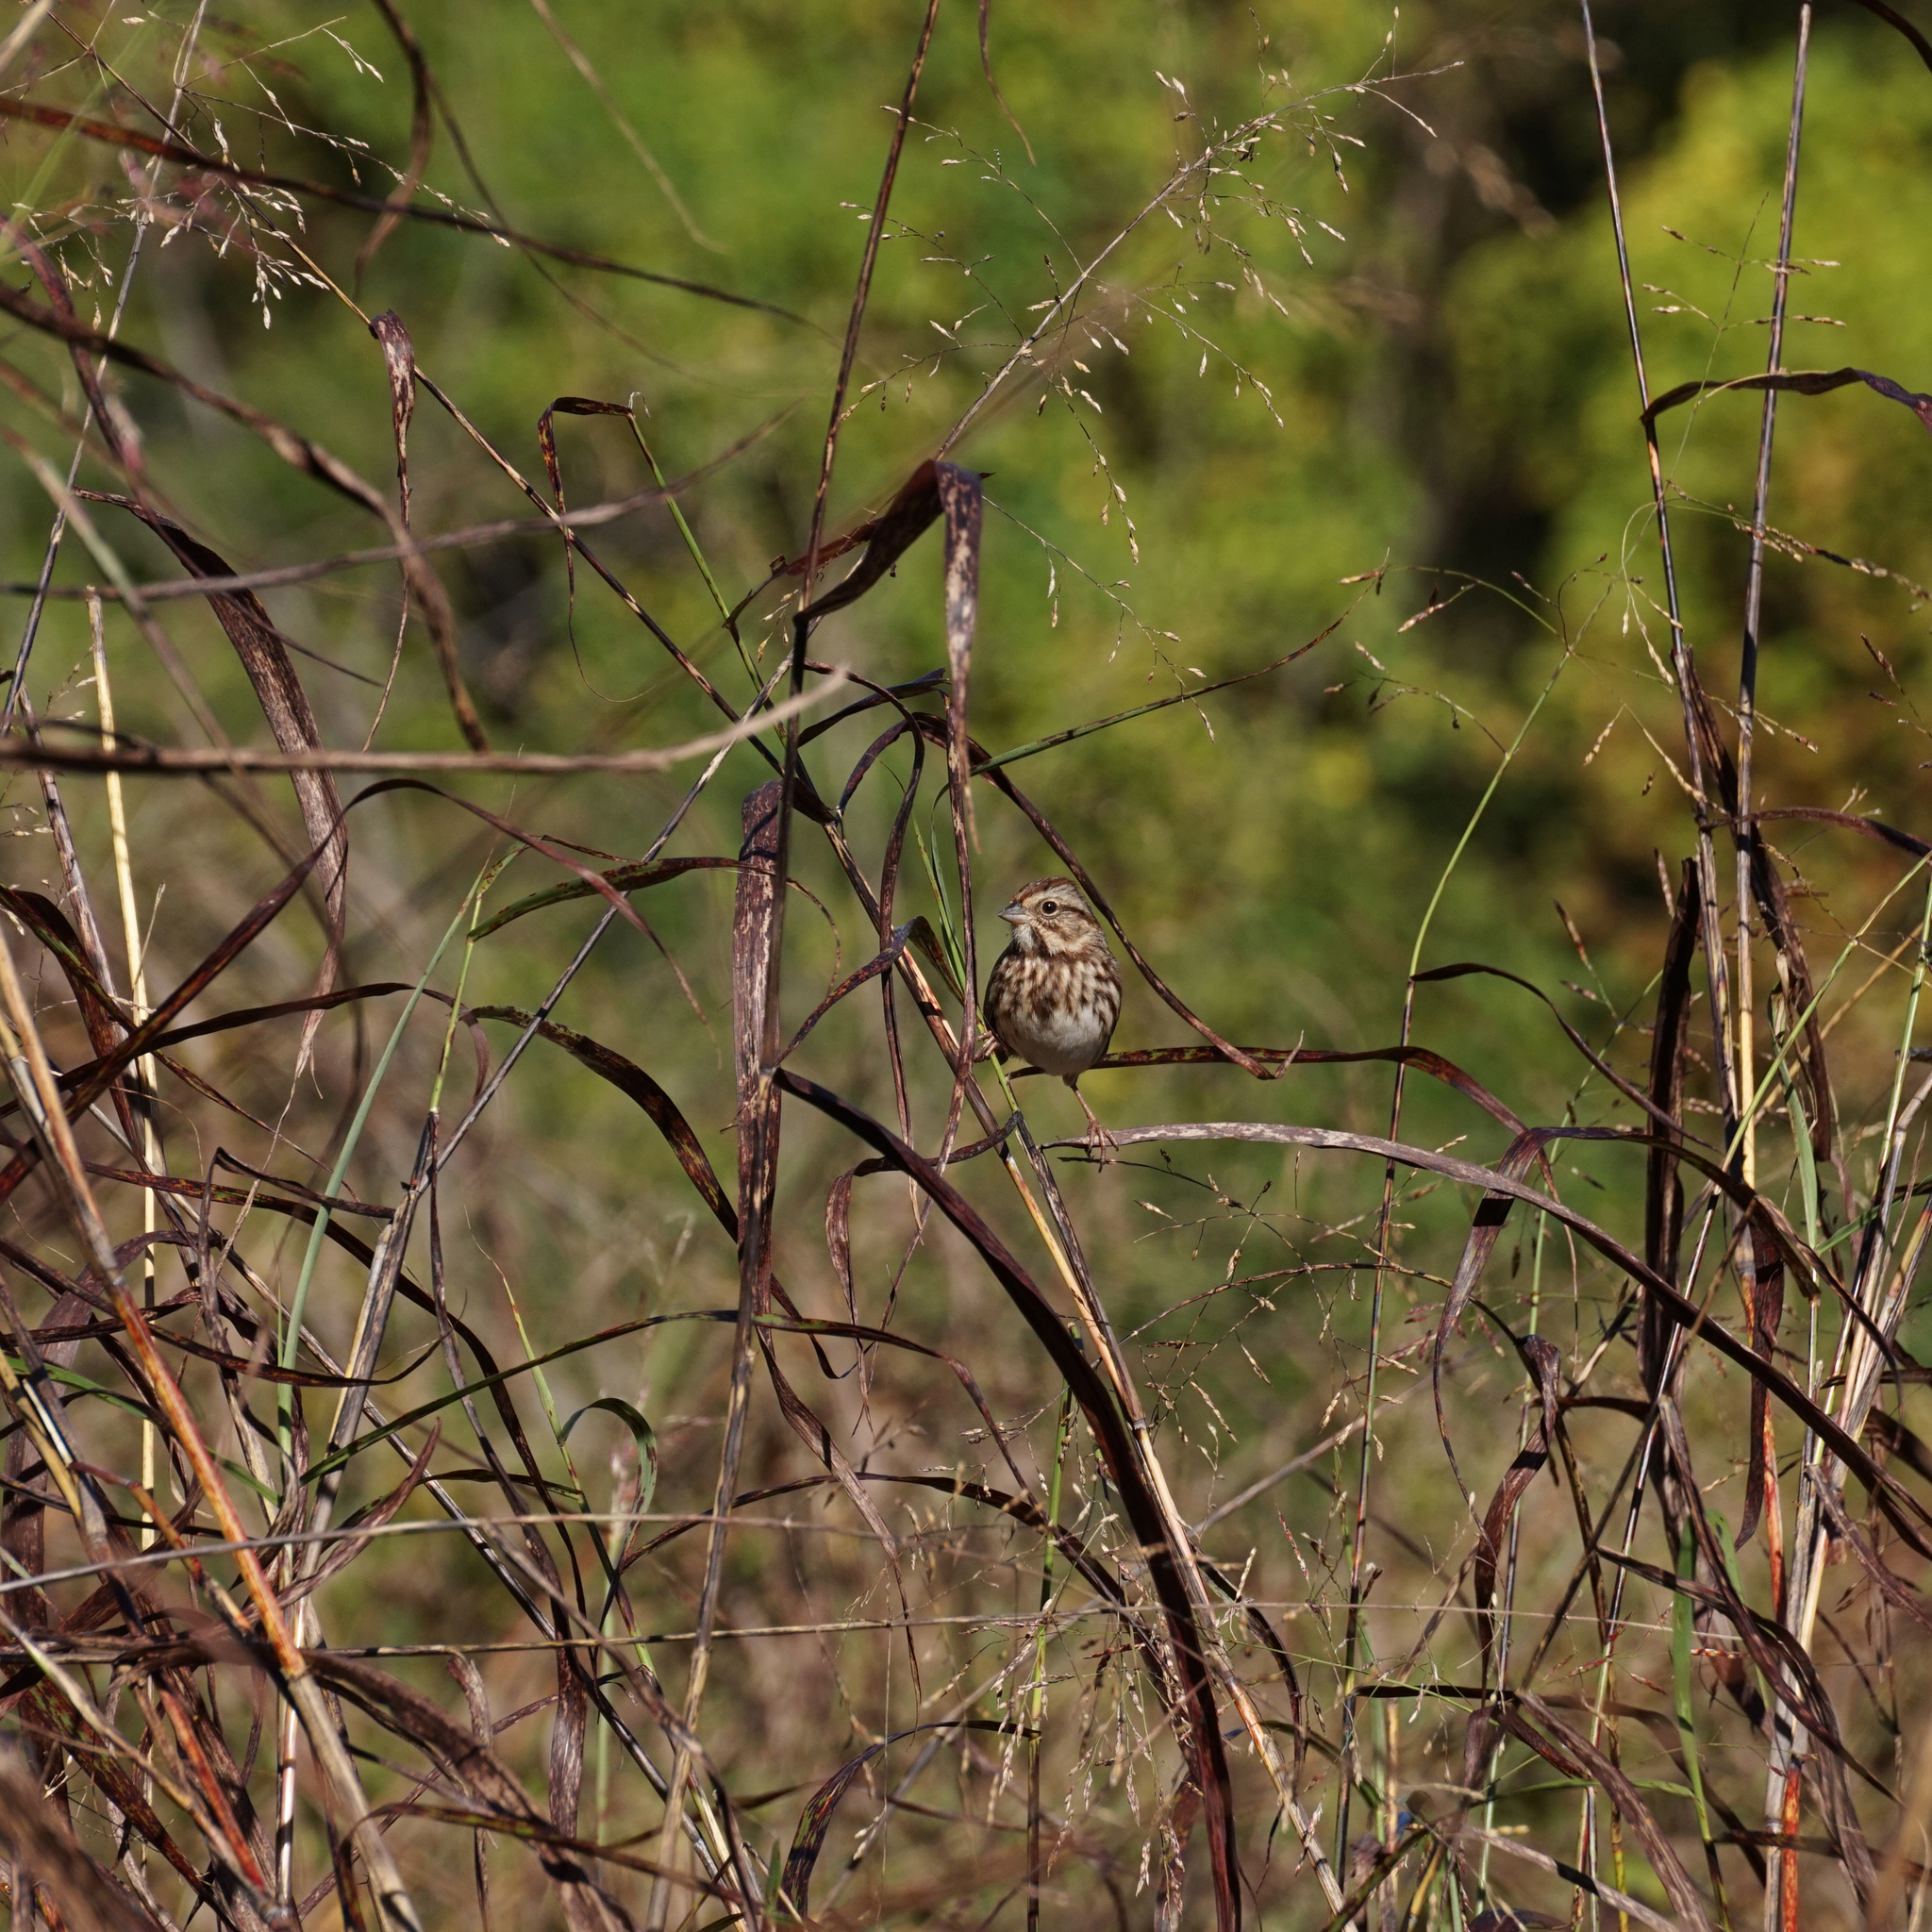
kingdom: Animalia
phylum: Chordata
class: Aves
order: Passeriformes
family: Passerellidae
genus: Melospiza
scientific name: Melospiza melodia
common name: Song sparrow
